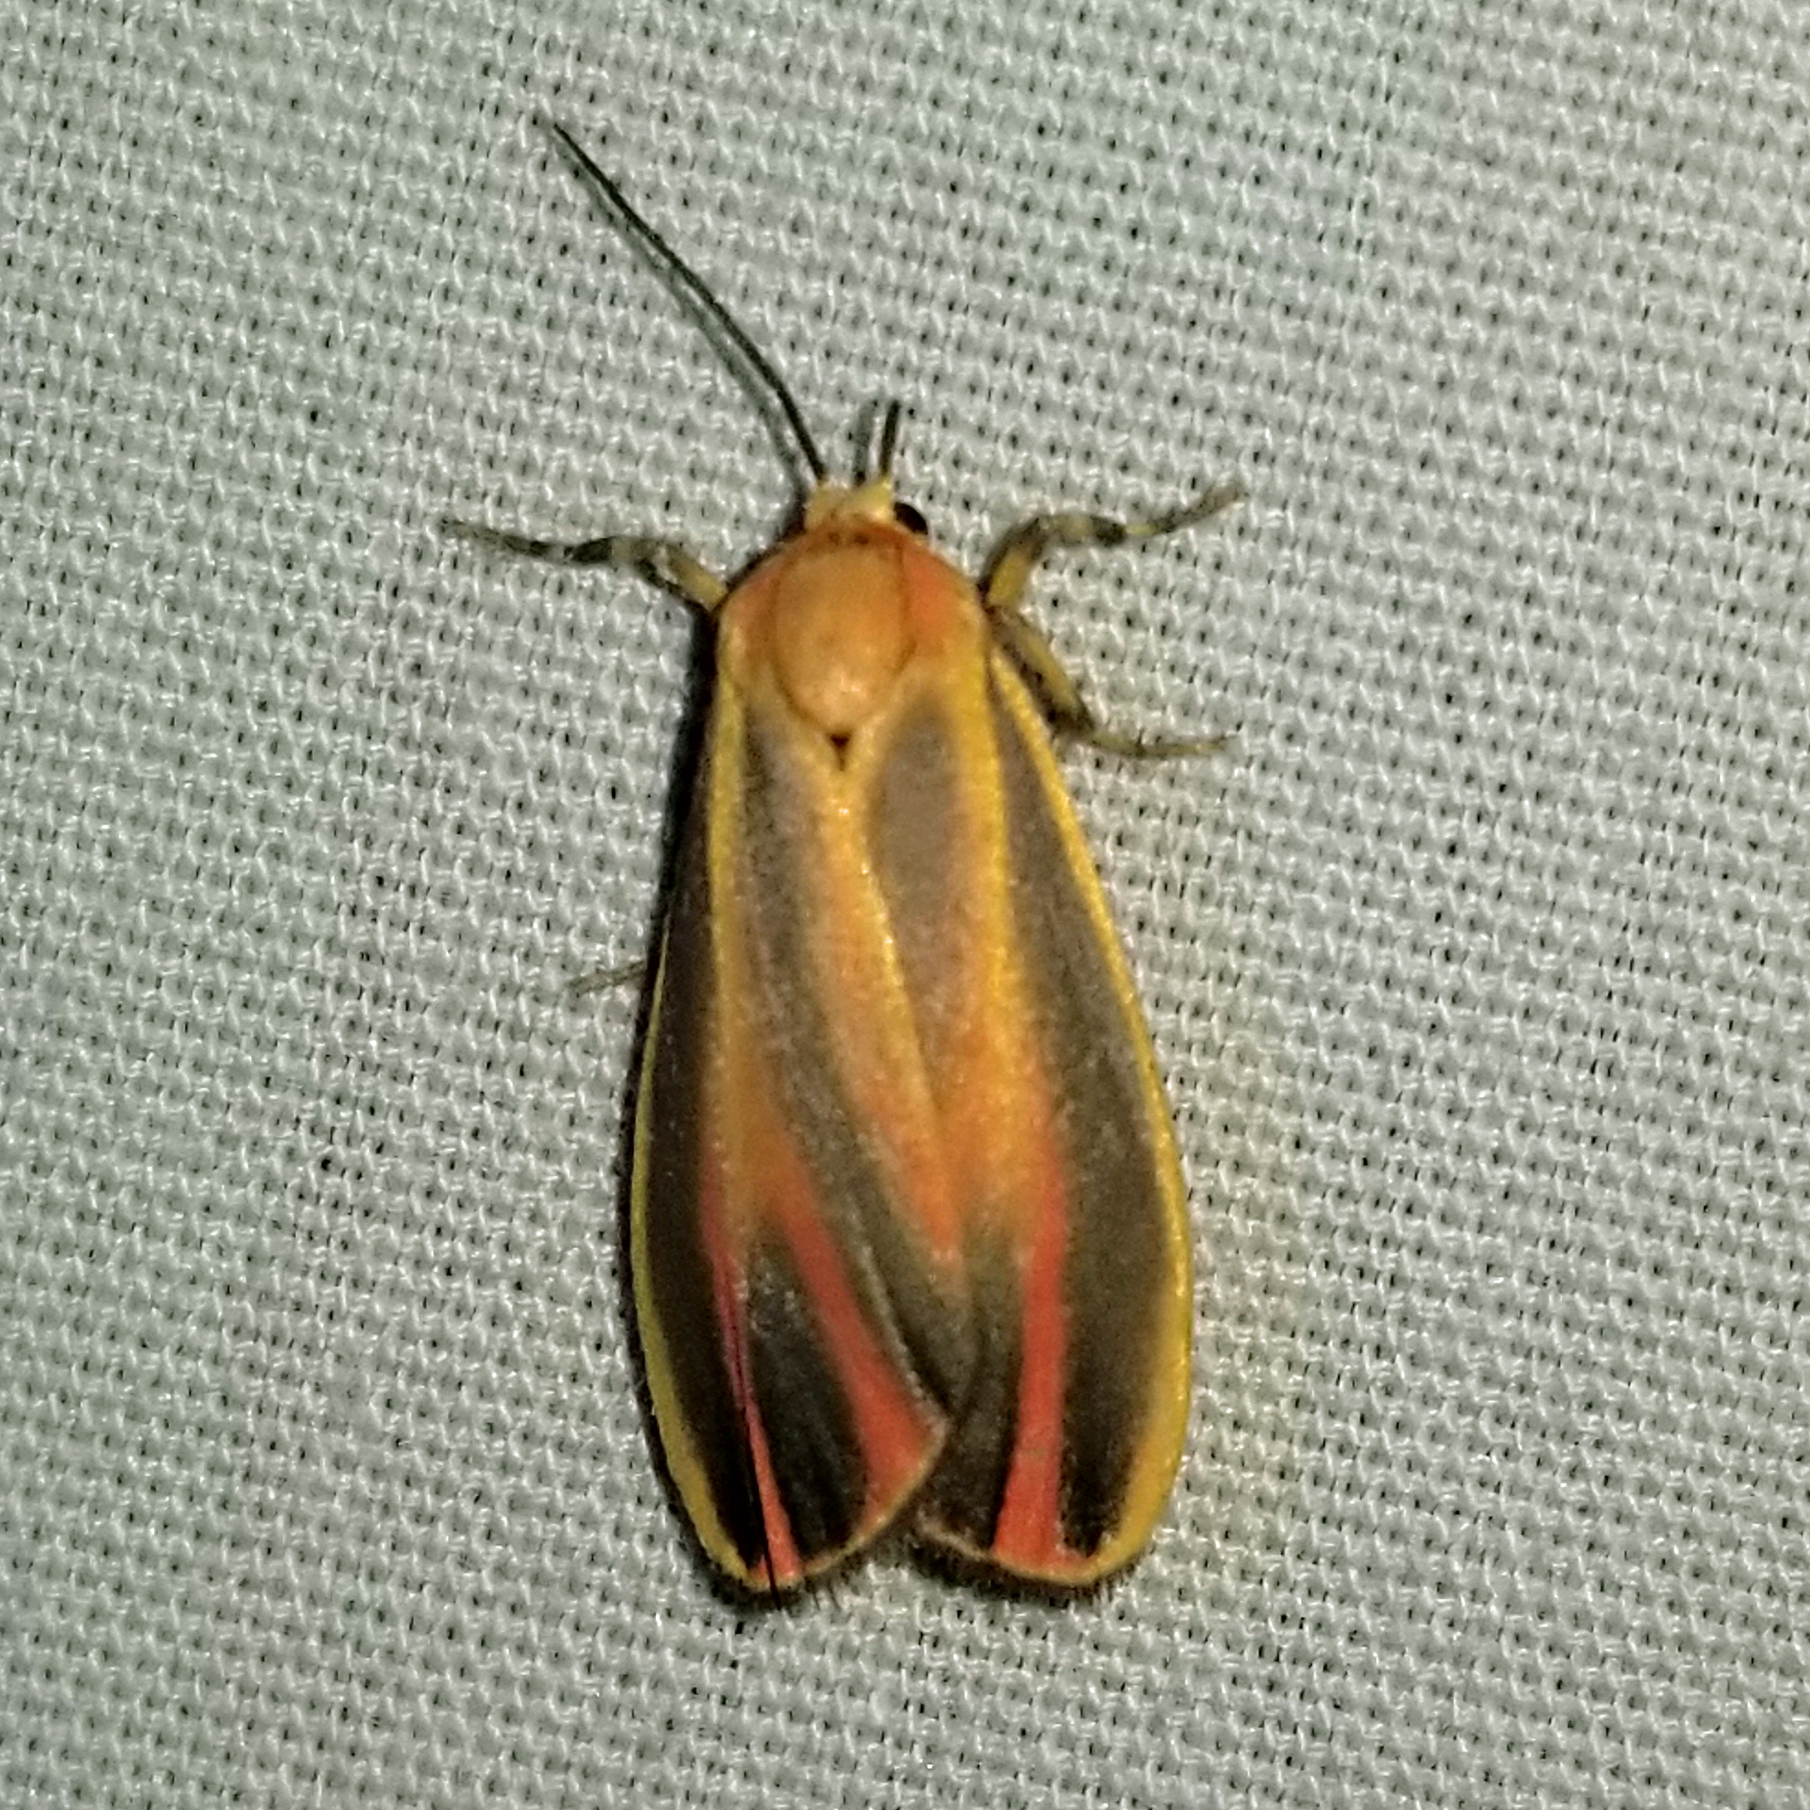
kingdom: Animalia
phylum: Arthropoda
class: Insecta
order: Lepidoptera
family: Erebidae
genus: Hypoprepia
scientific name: Hypoprepia fucosa
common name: Painted lichen moth
